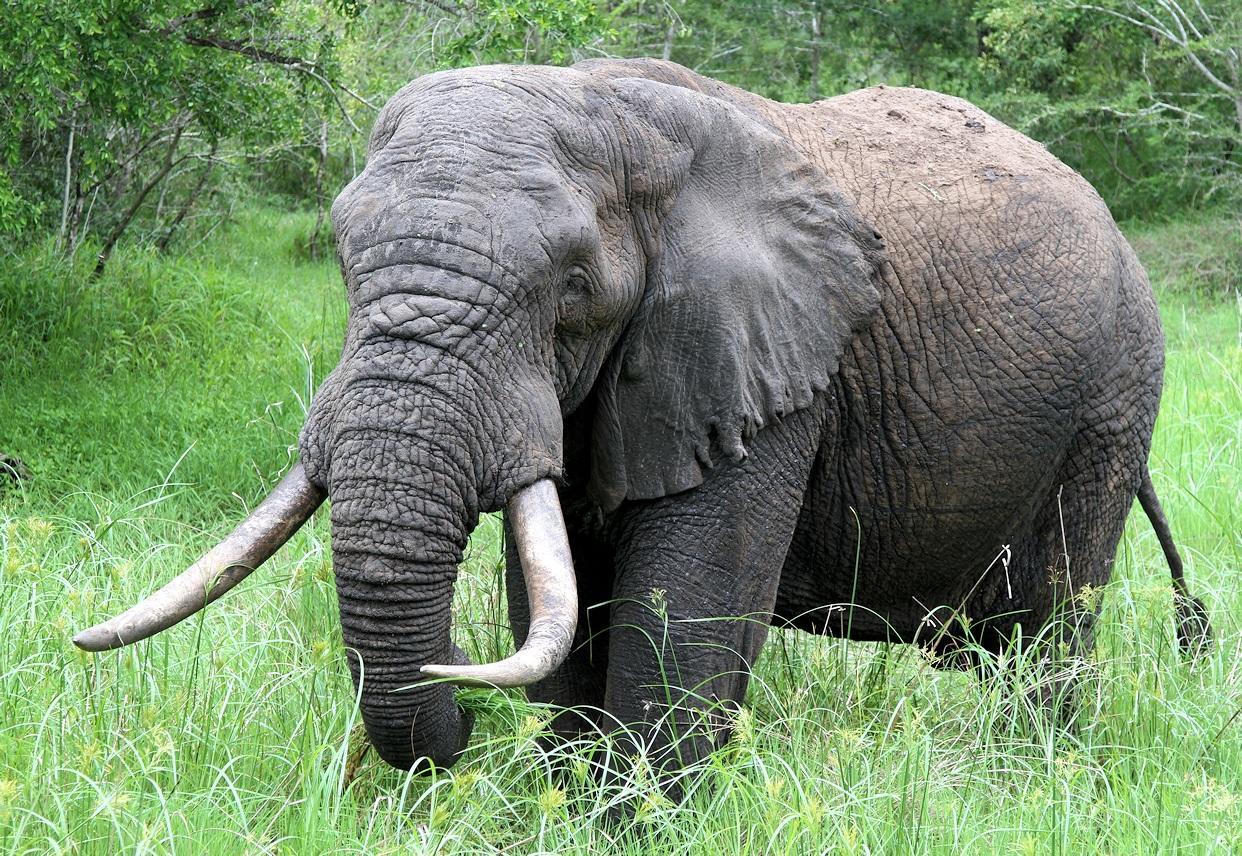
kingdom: Animalia
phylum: Chordata
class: Mammalia
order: Proboscidea
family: Elephantidae
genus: Loxodonta
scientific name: Loxodonta africana
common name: African elephant
